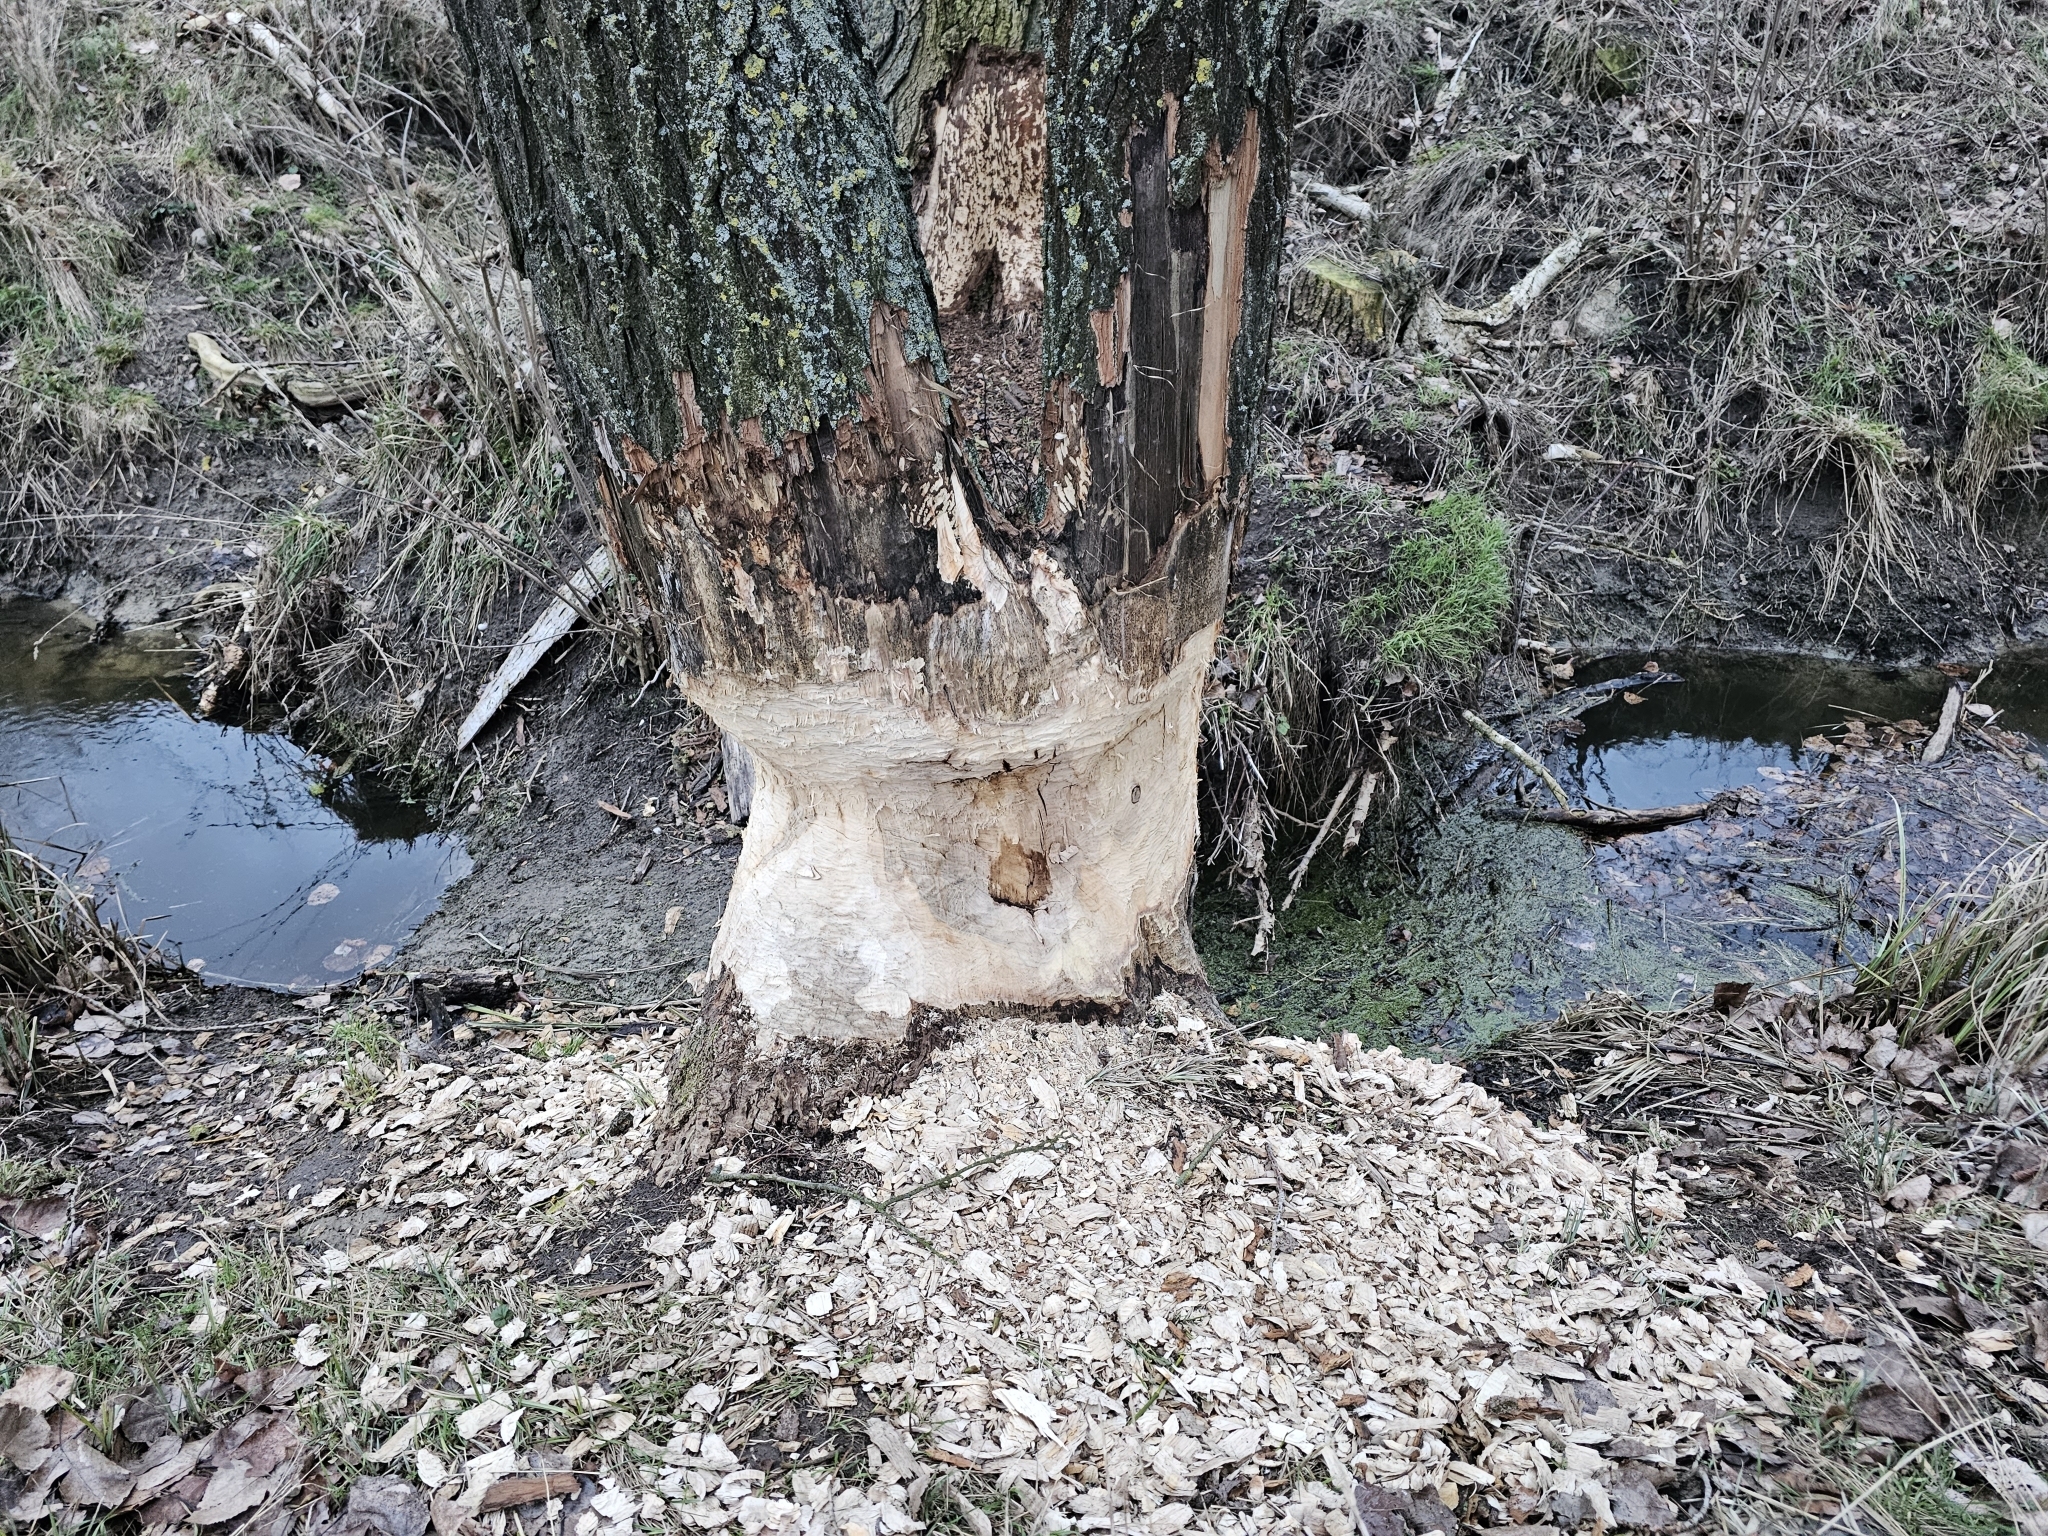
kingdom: Animalia
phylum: Chordata
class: Mammalia
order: Rodentia
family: Castoridae
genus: Castor
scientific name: Castor fiber
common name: Eurasian beaver
